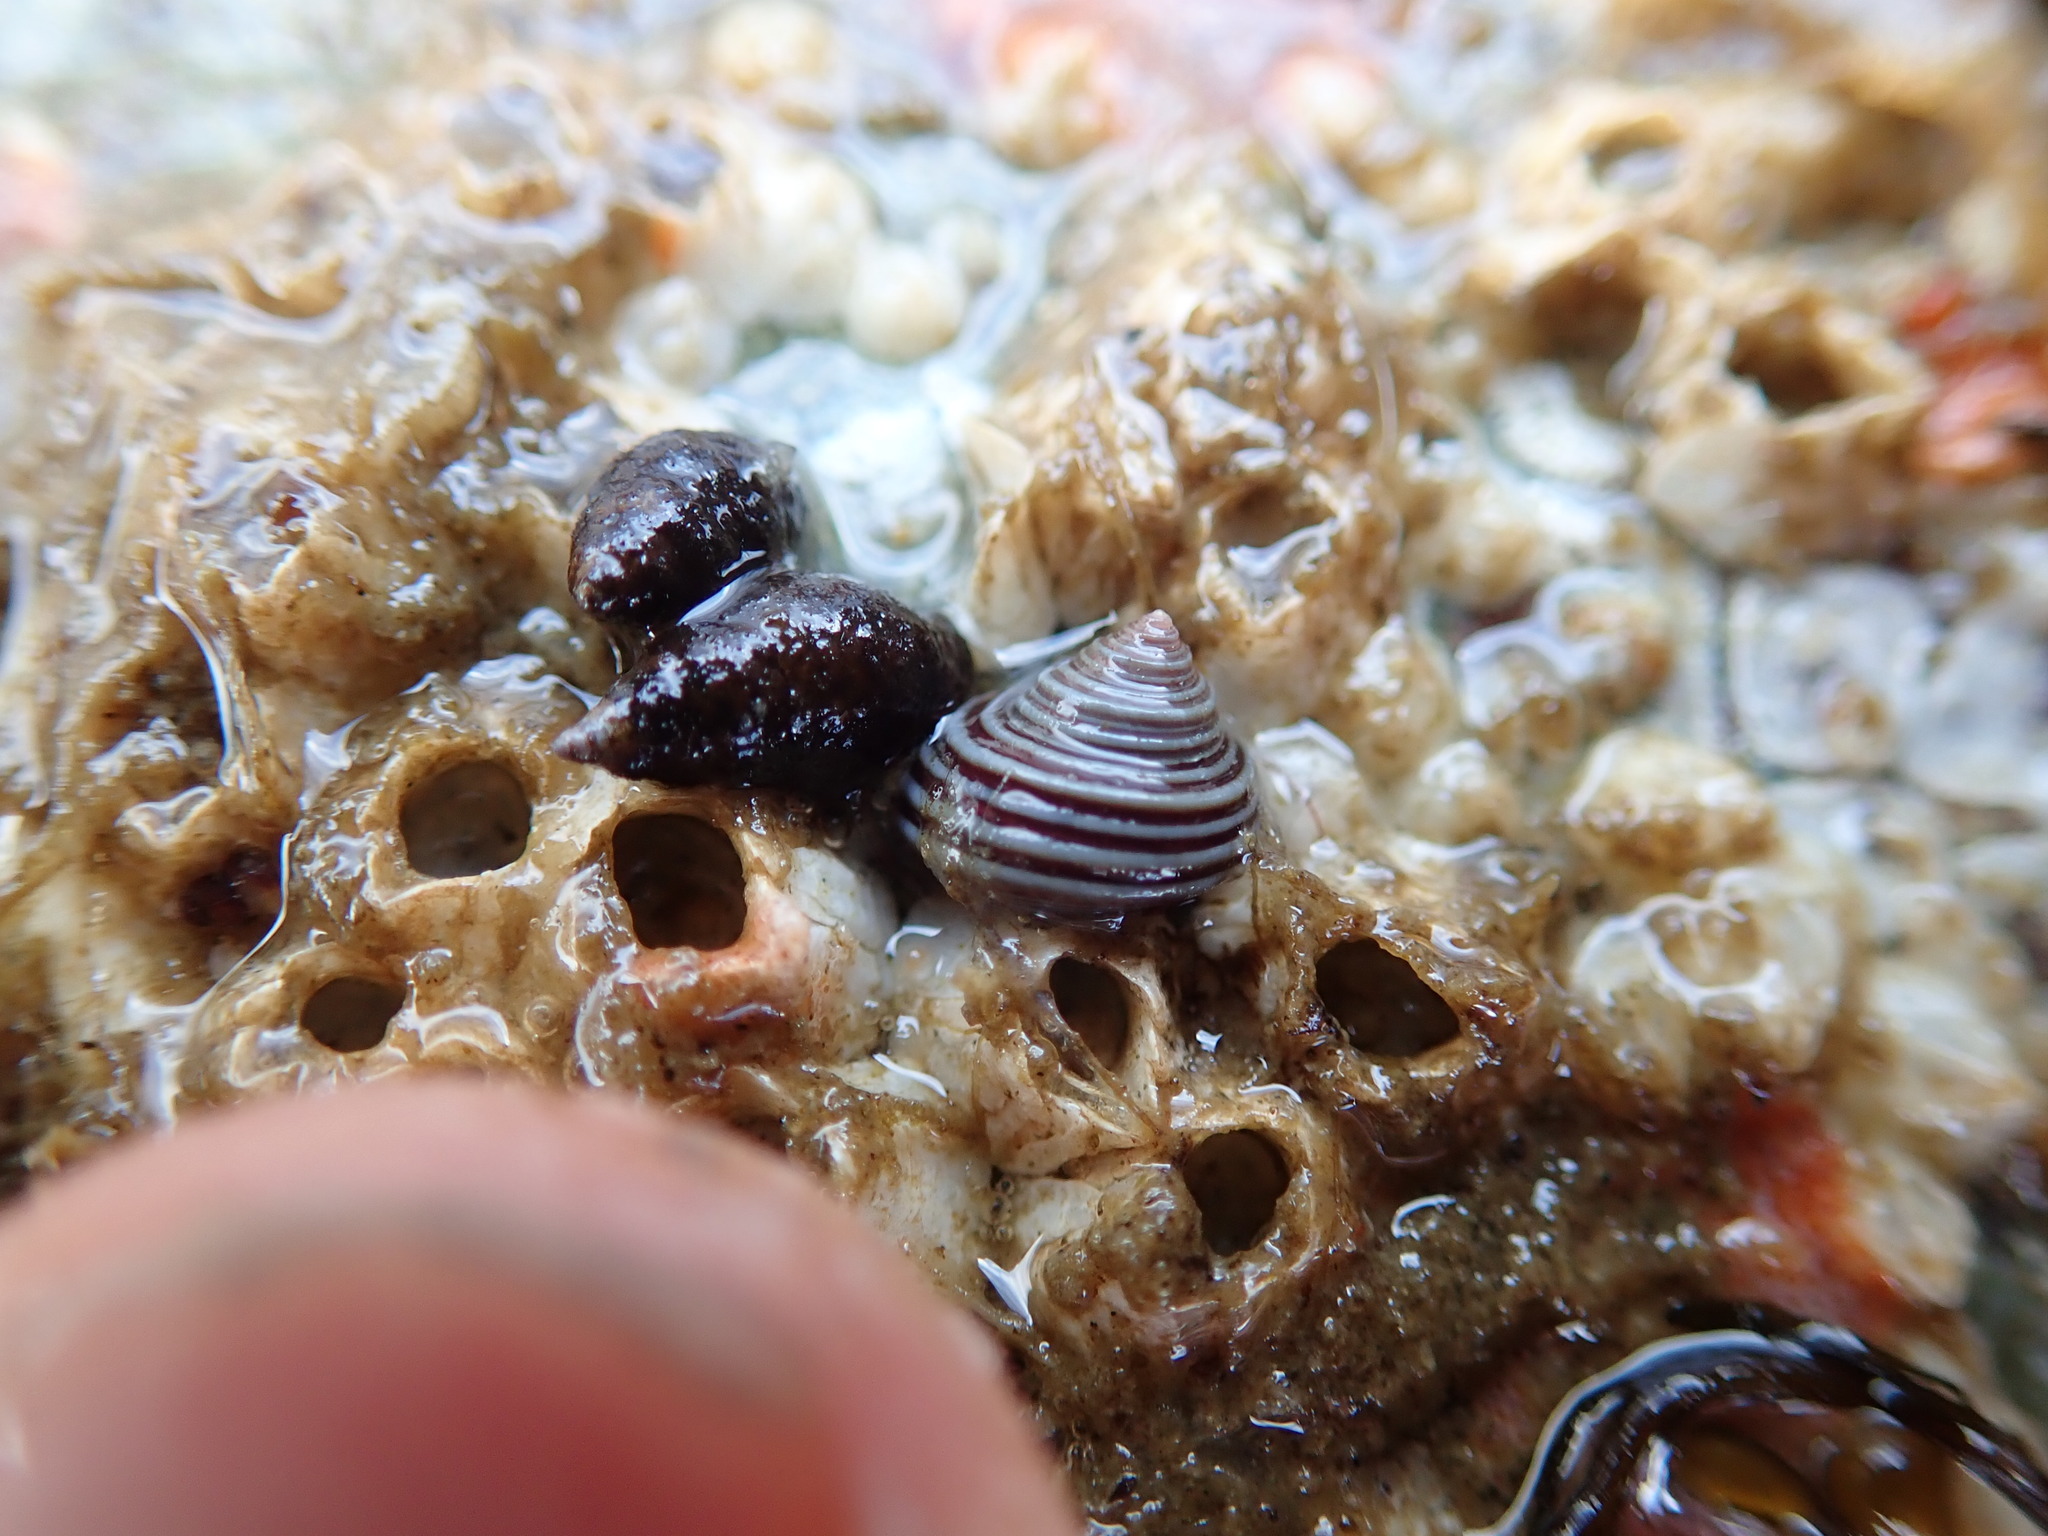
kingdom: Animalia
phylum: Mollusca
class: Gastropoda
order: Trochida
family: Calliostomatidae
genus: Calliostoma
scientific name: Calliostoma ligatum
